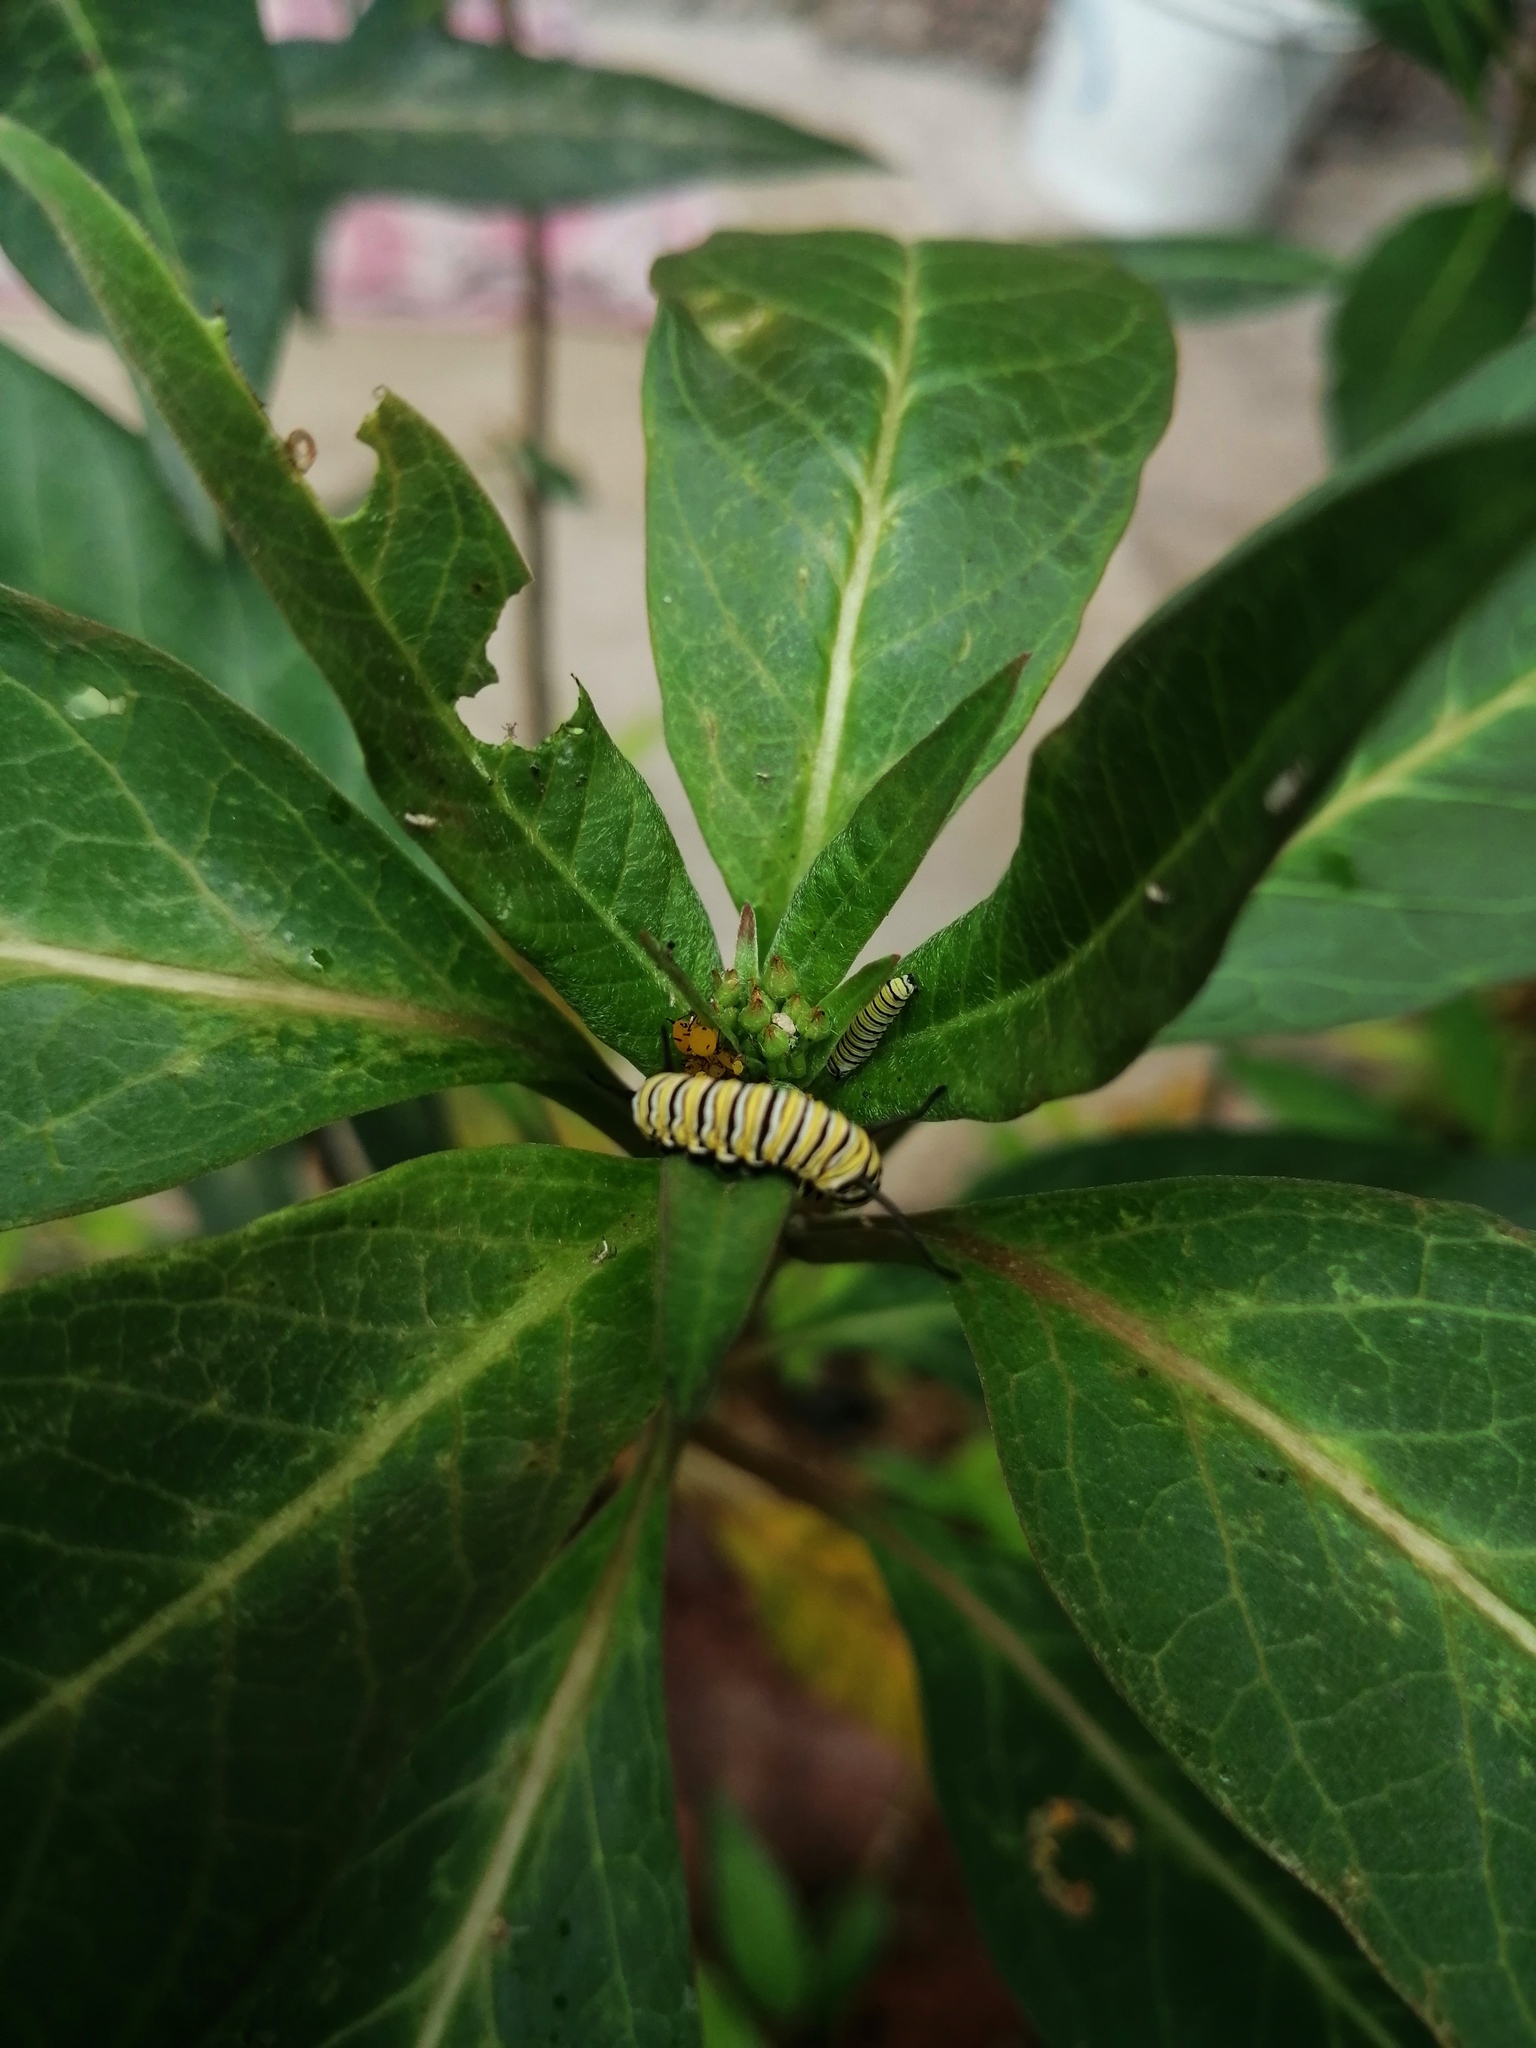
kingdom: Animalia
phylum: Arthropoda
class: Insecta
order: Lepidoptera
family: Nymphalidae
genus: Danaus
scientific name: Danaus plexippus
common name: Monarch
